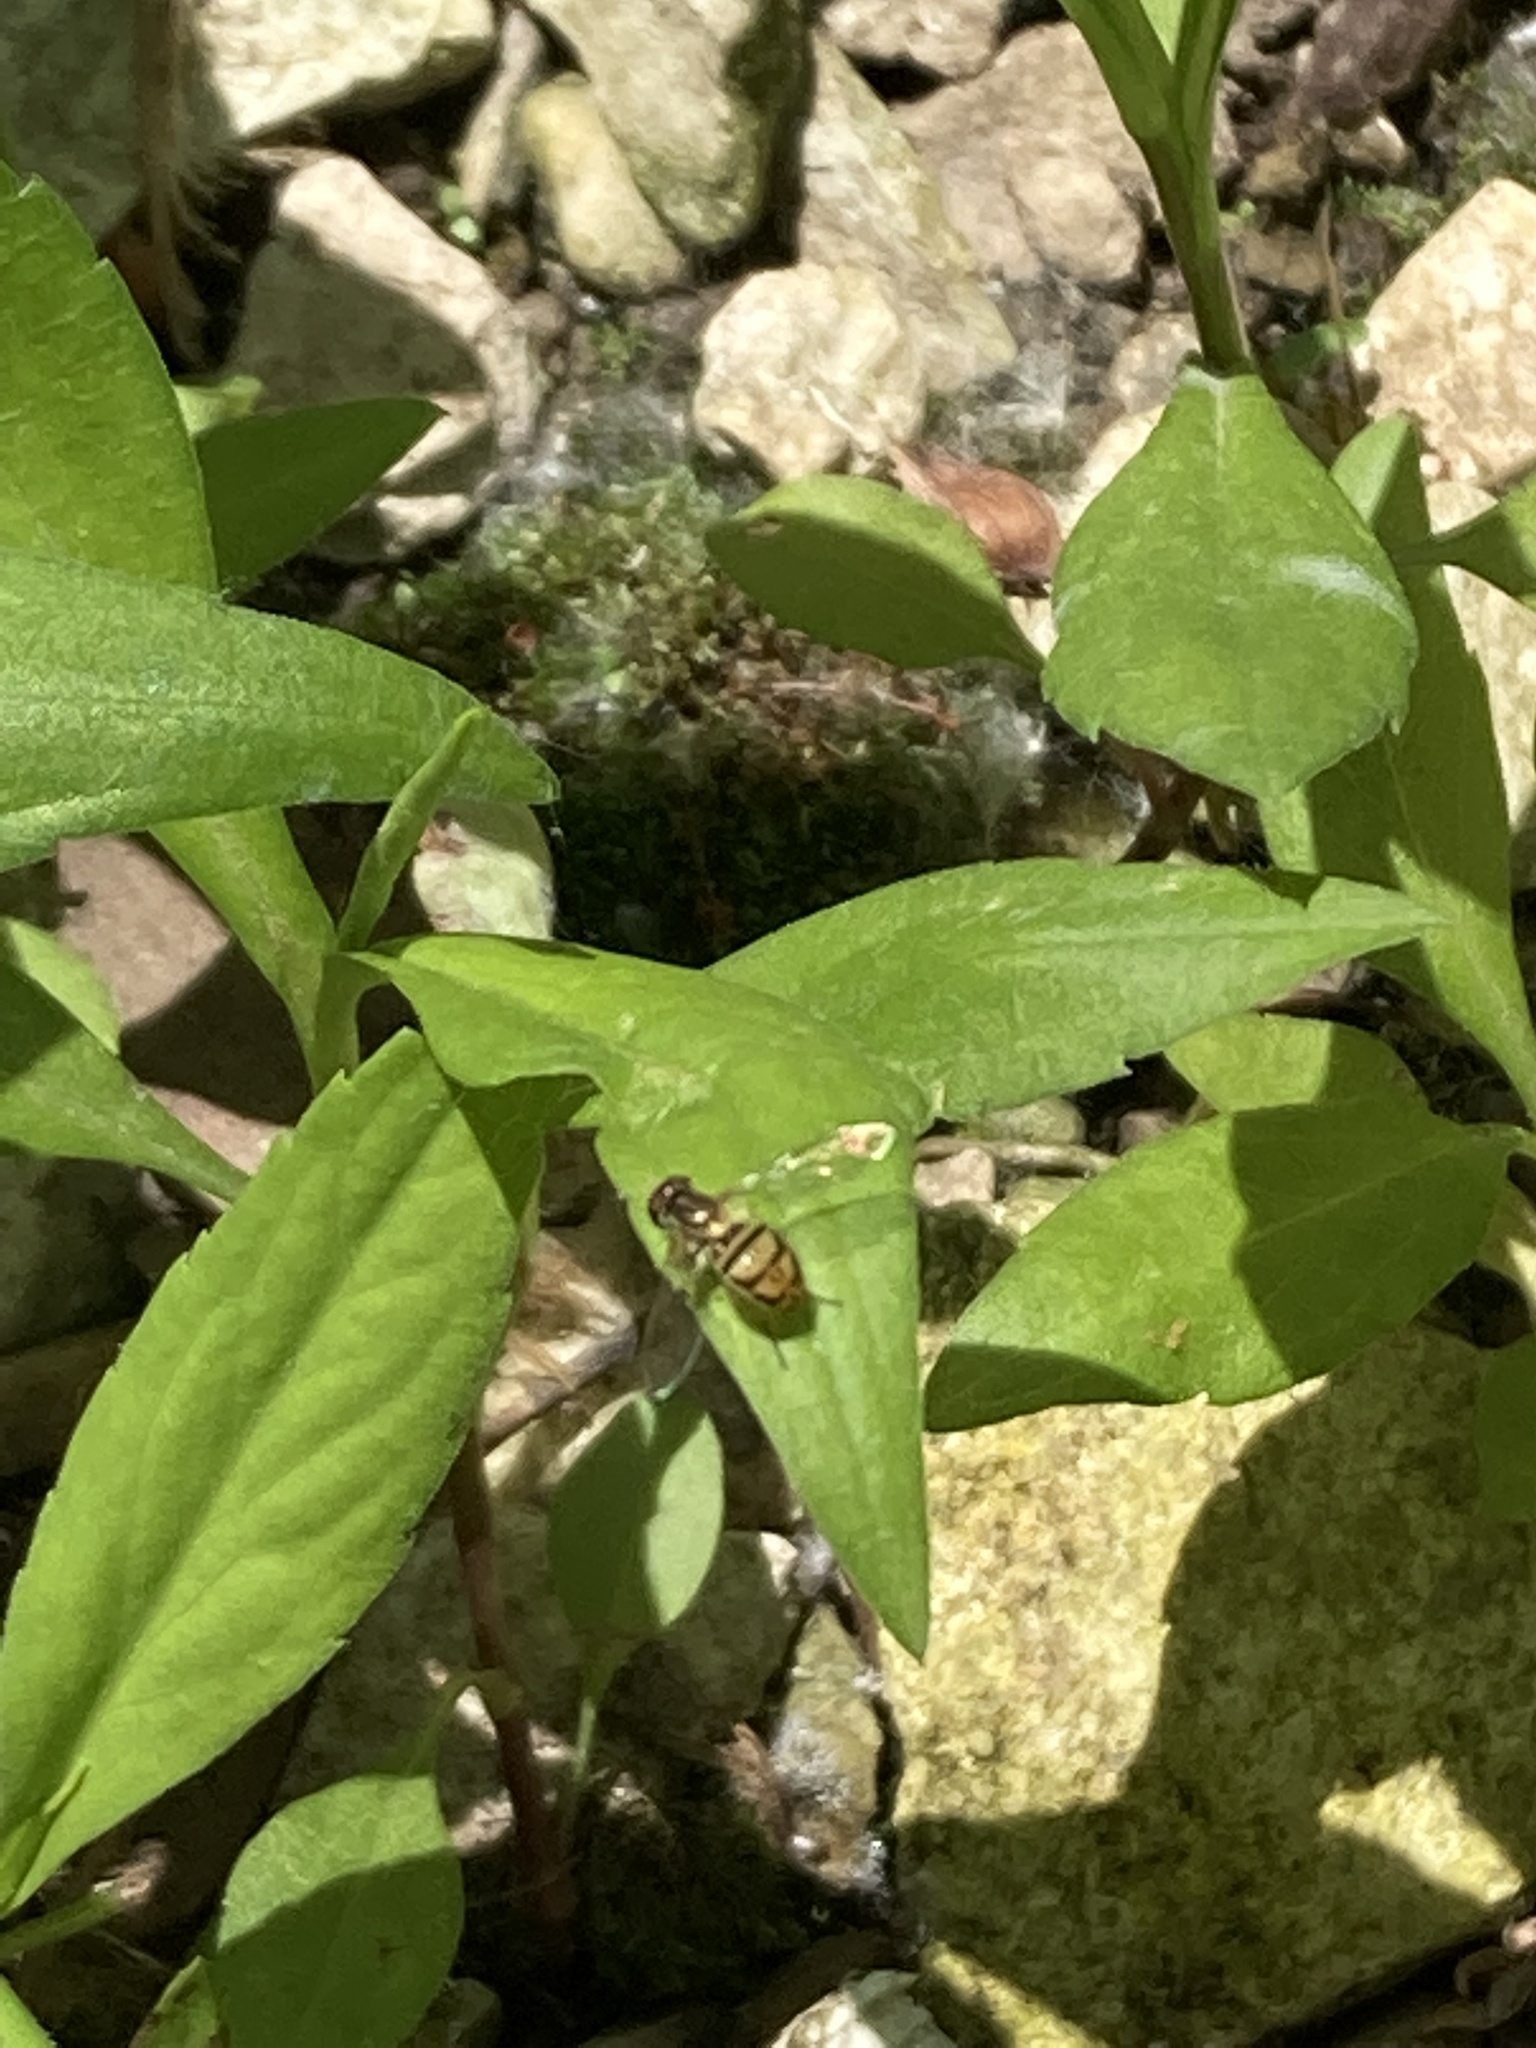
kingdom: Animalia
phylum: Arthropoda
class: Insecta
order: Diptera
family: Syrphidae
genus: Toxomerus
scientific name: Toxomerus marginatus
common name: Syrphid fly
